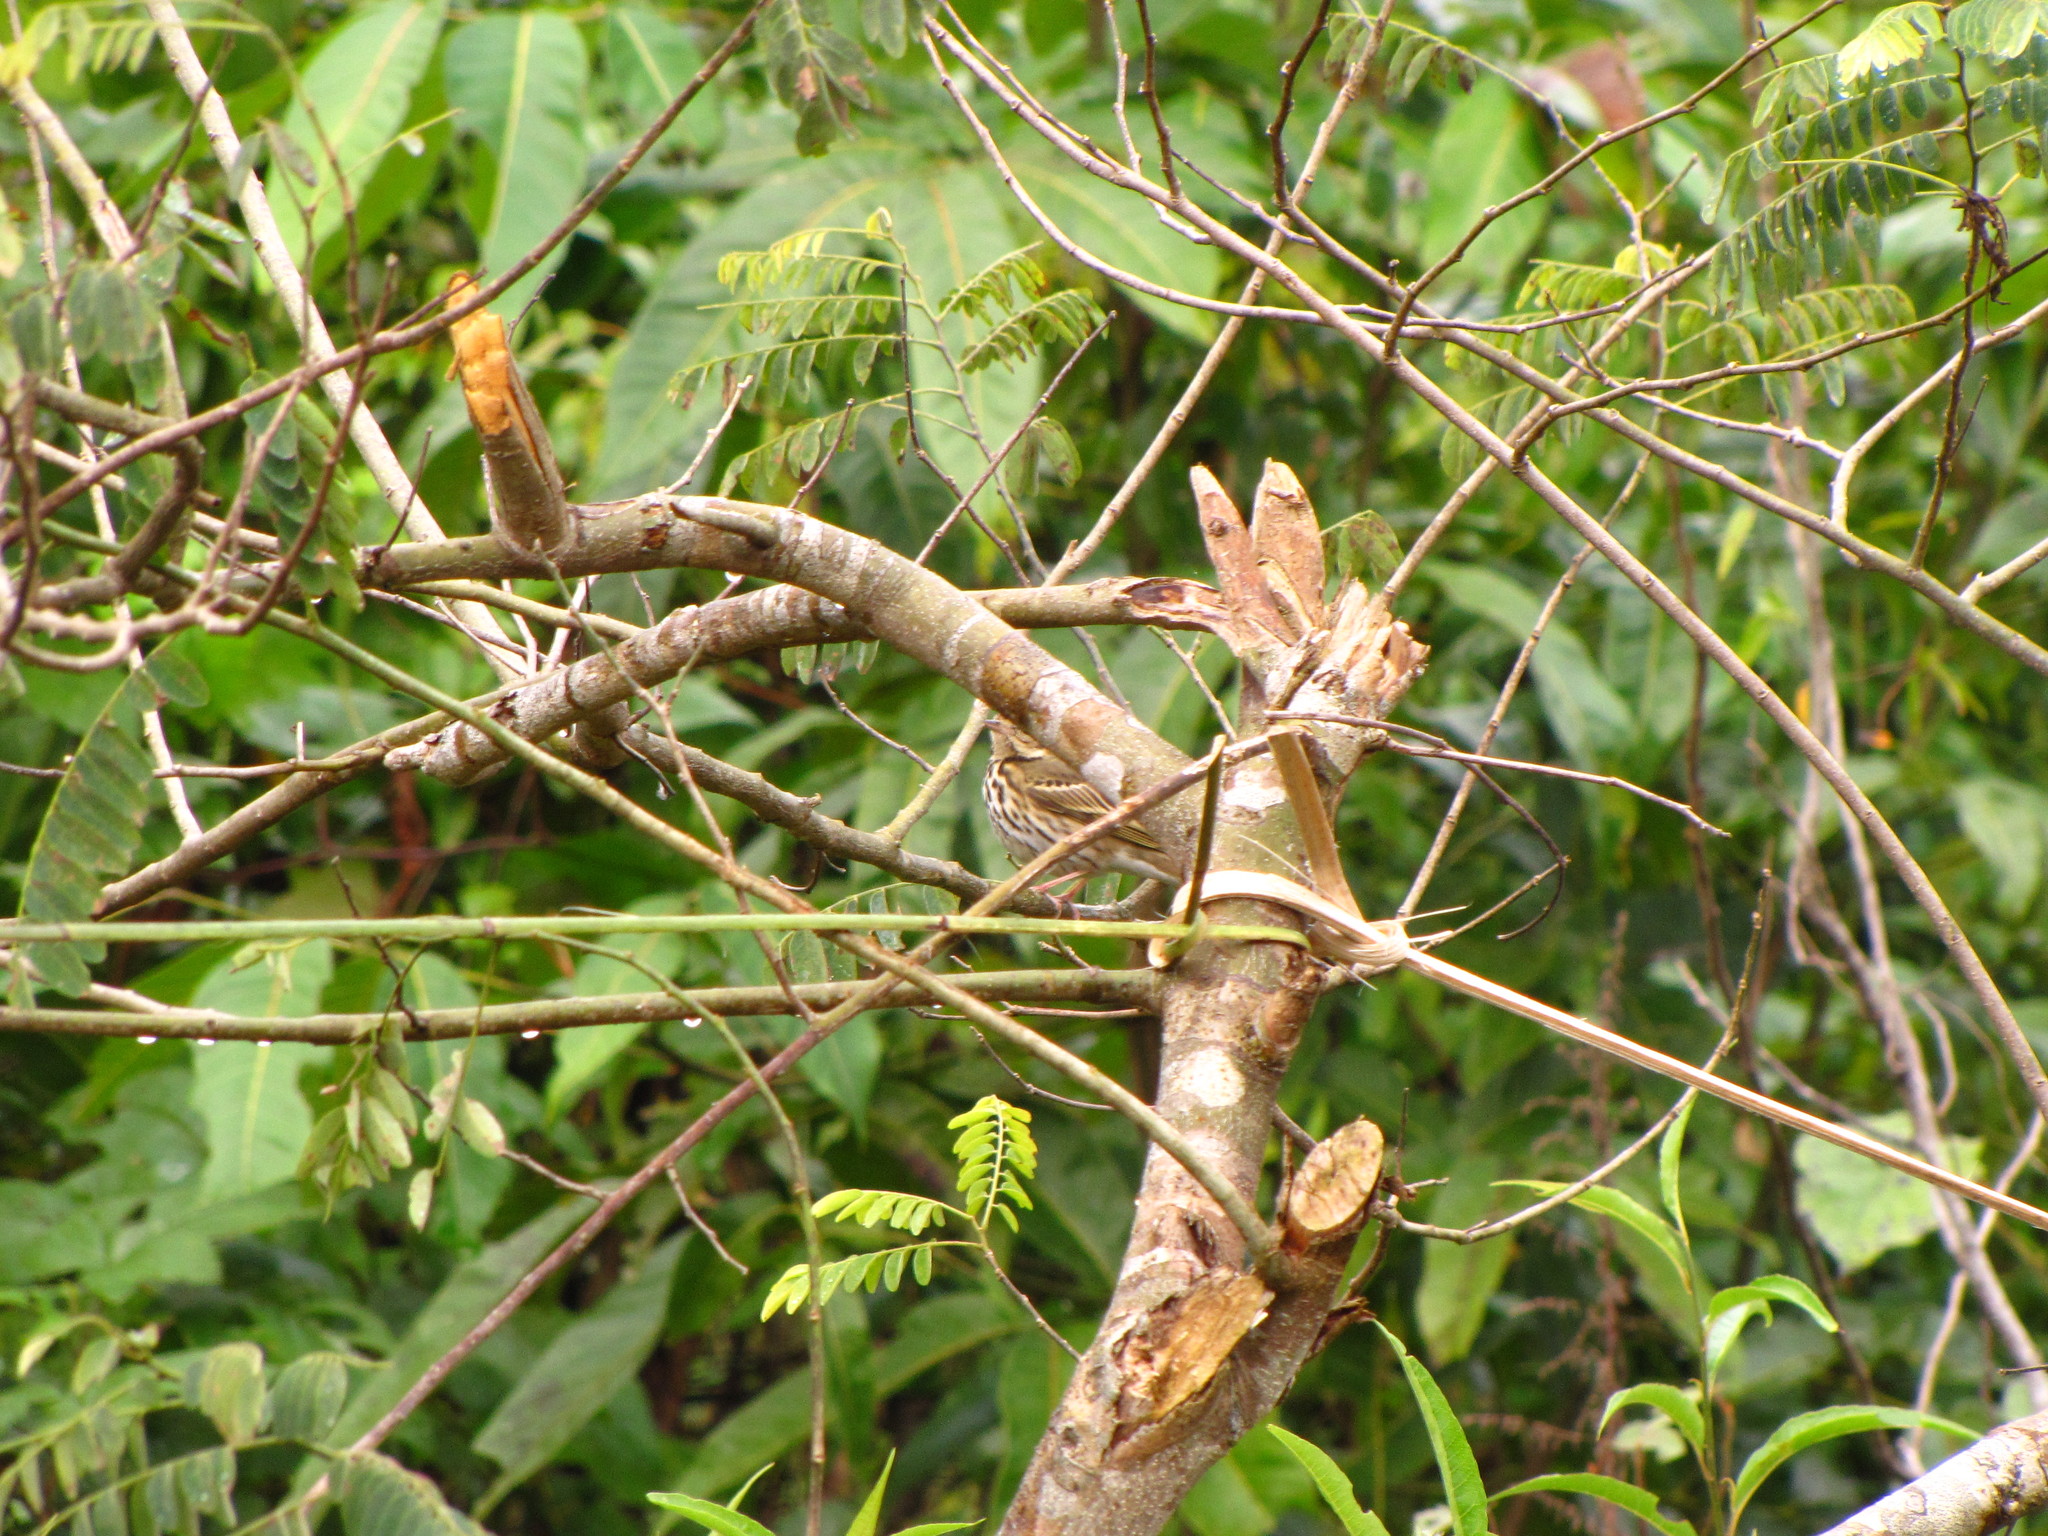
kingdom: Animalia
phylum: Chordata
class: Aves
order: Passeriformes
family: Motacillidae
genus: Anthus
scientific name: Anthus hodgsoni
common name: Olive-backed pipit
